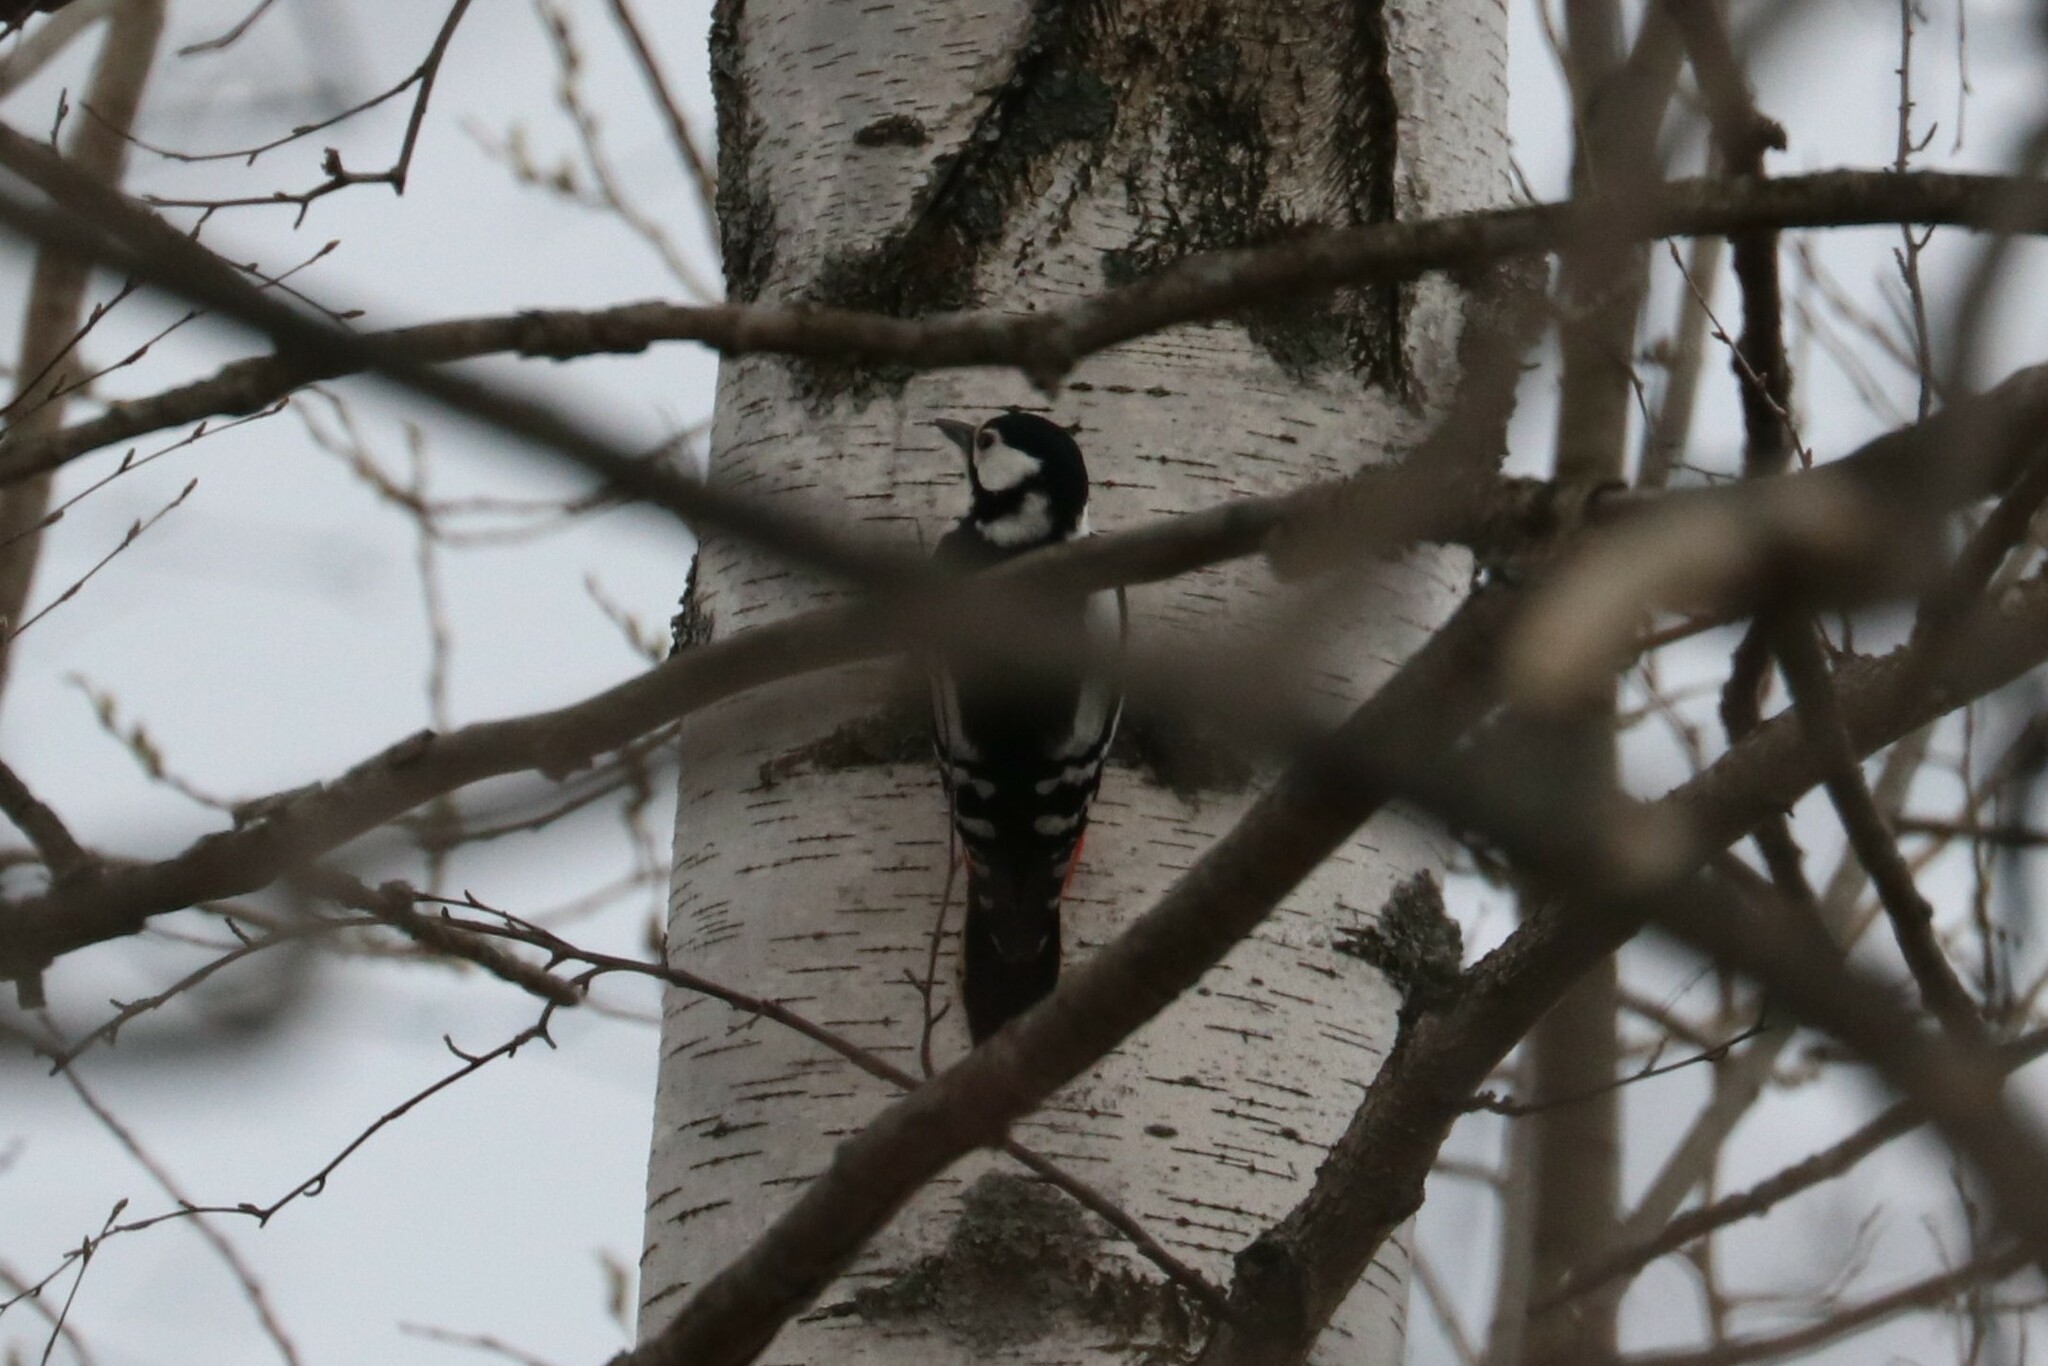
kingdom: Animalia
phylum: Chordata
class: Aves
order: Piciformes
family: Picidae
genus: Dendrocopos
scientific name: Dendrocopos major
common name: Great spotted woodpecker
